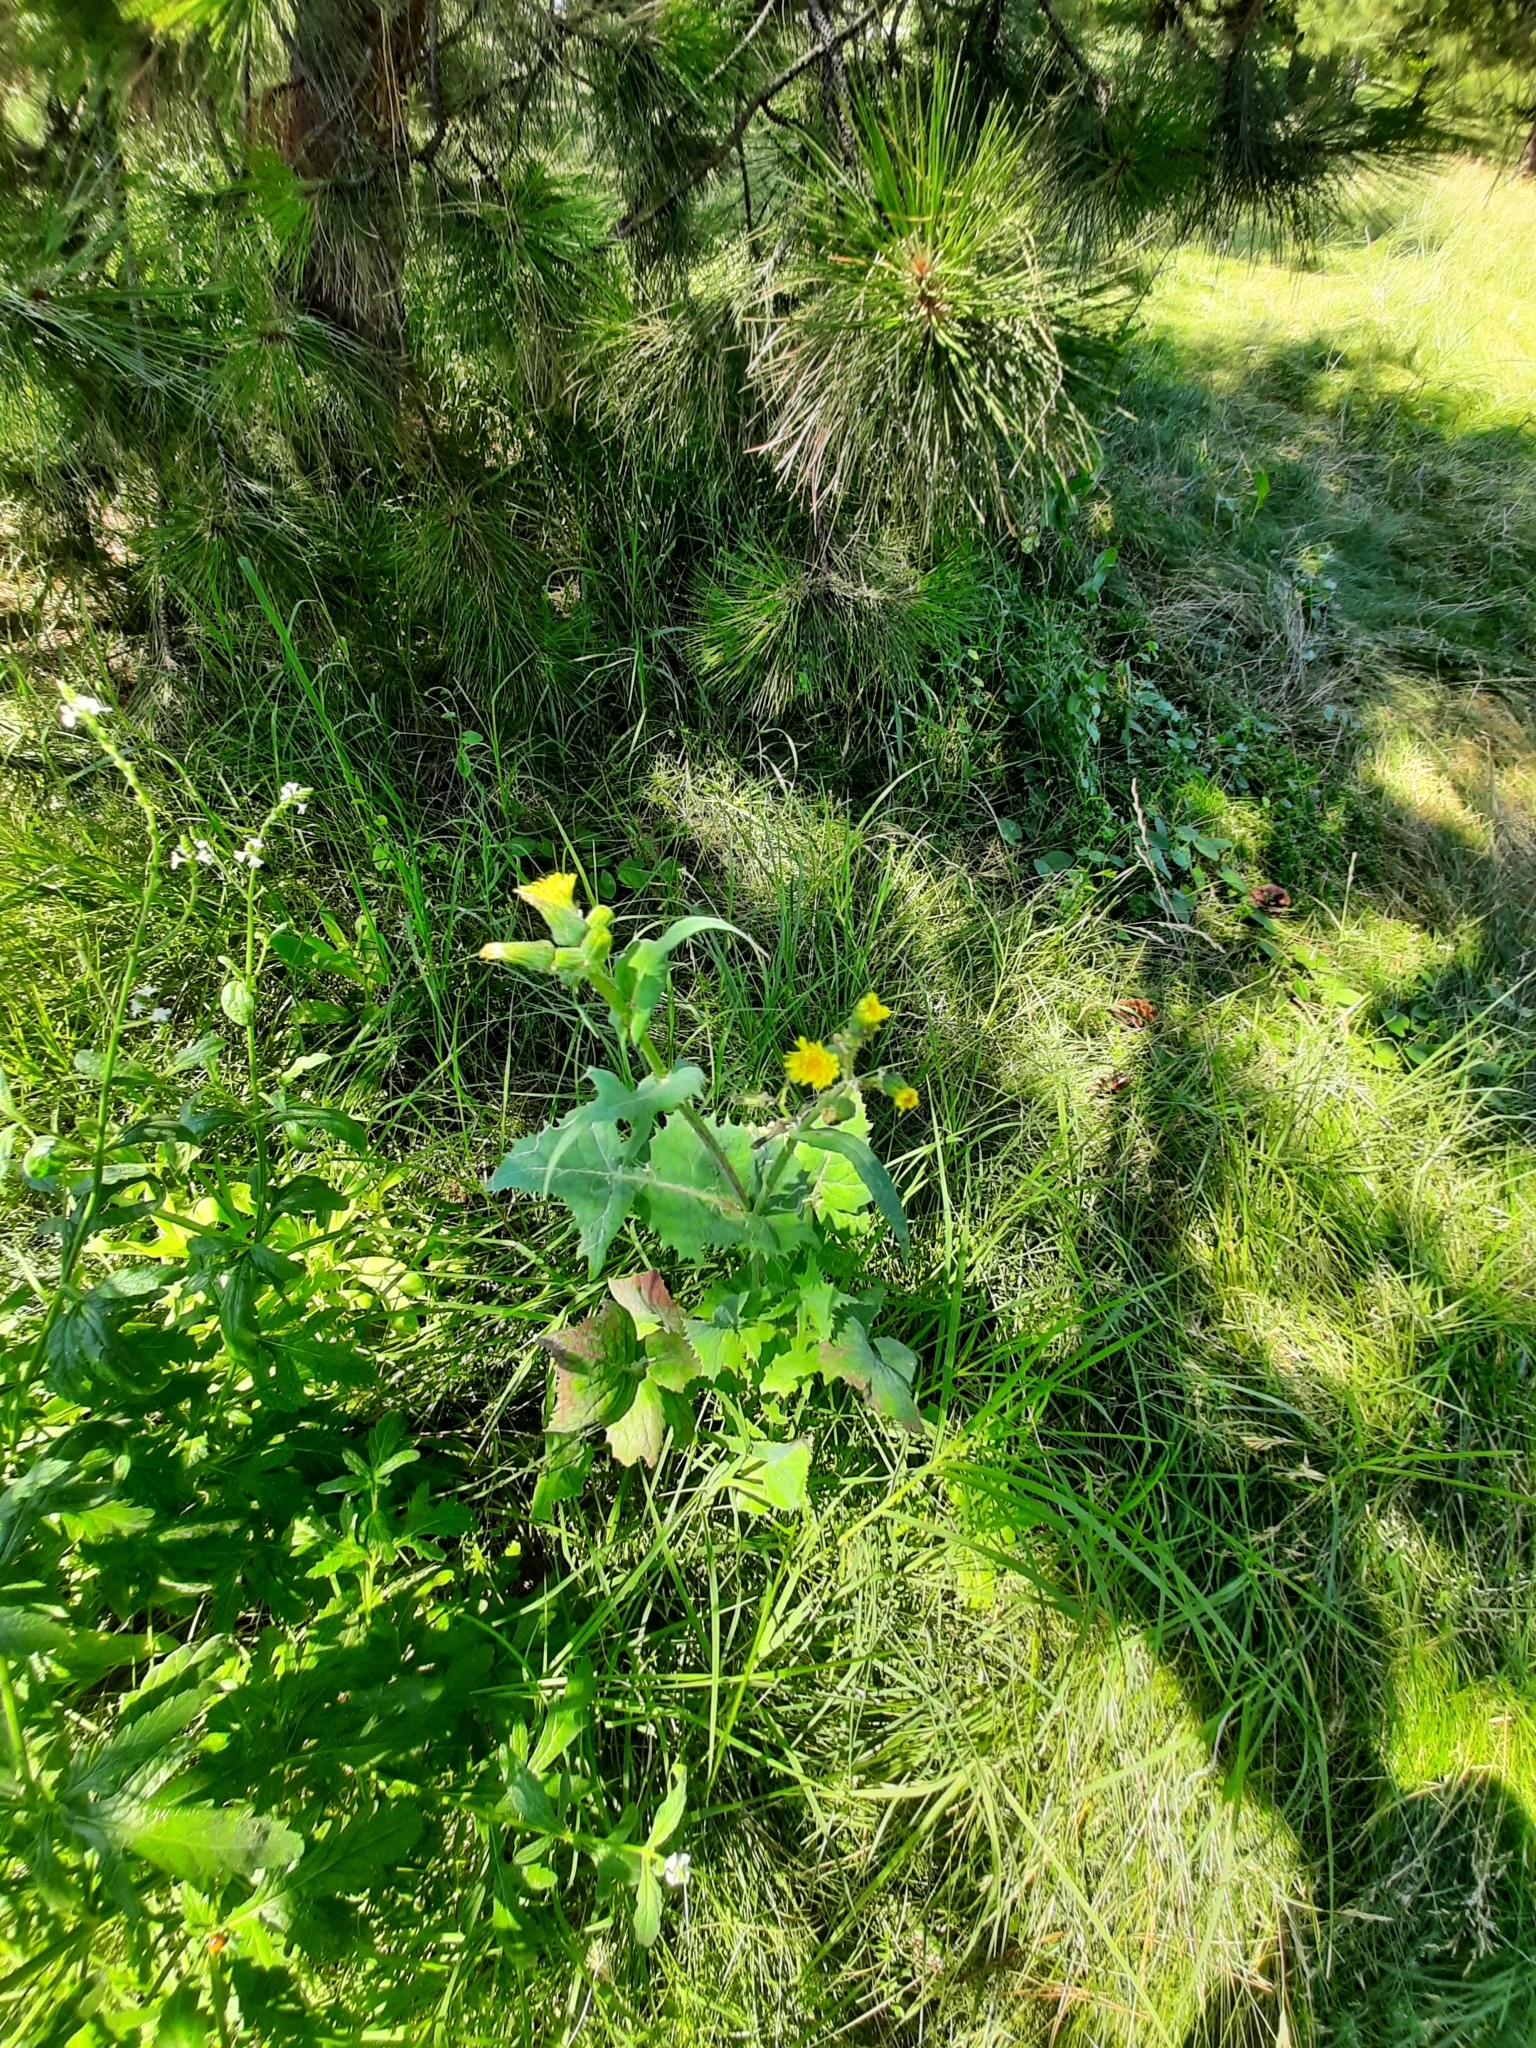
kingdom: Plantae
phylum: Tracheophyta
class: Magnoliopsida
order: Asterales
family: Asteraceae
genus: Sonchus
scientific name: Sonchus oleraceus
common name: Common sowthistle
